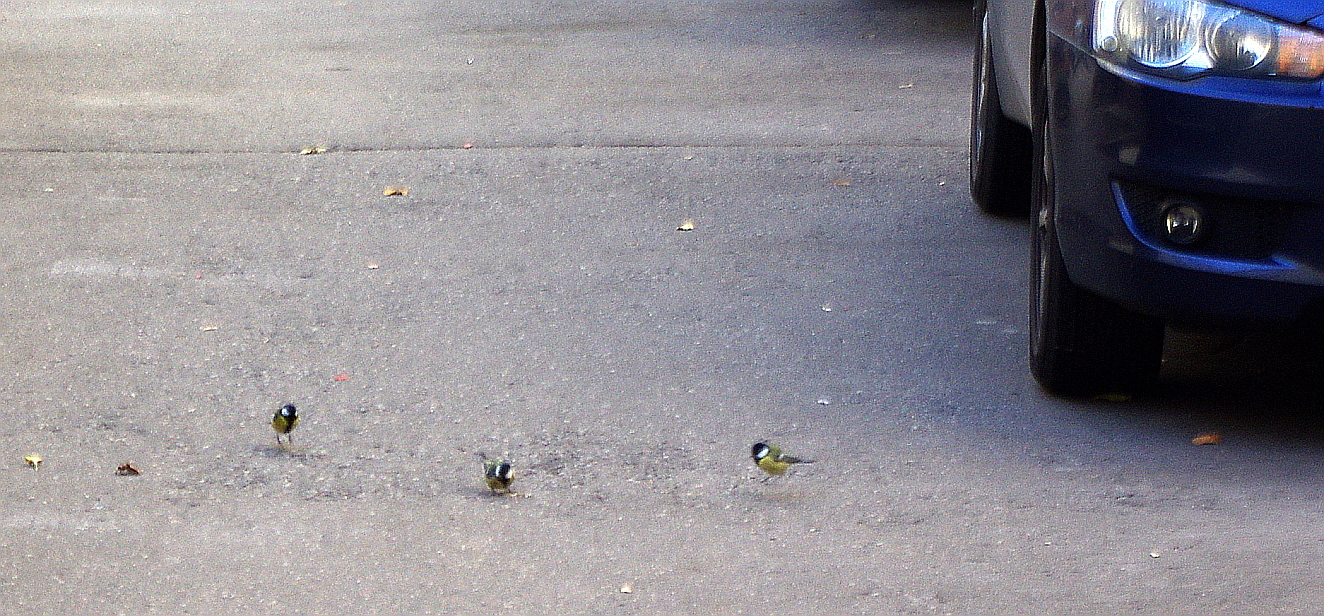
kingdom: Animalia
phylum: Chordata
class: Aves
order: Passeriformes
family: Paridae
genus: Parus
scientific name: Parus major
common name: Great tit
